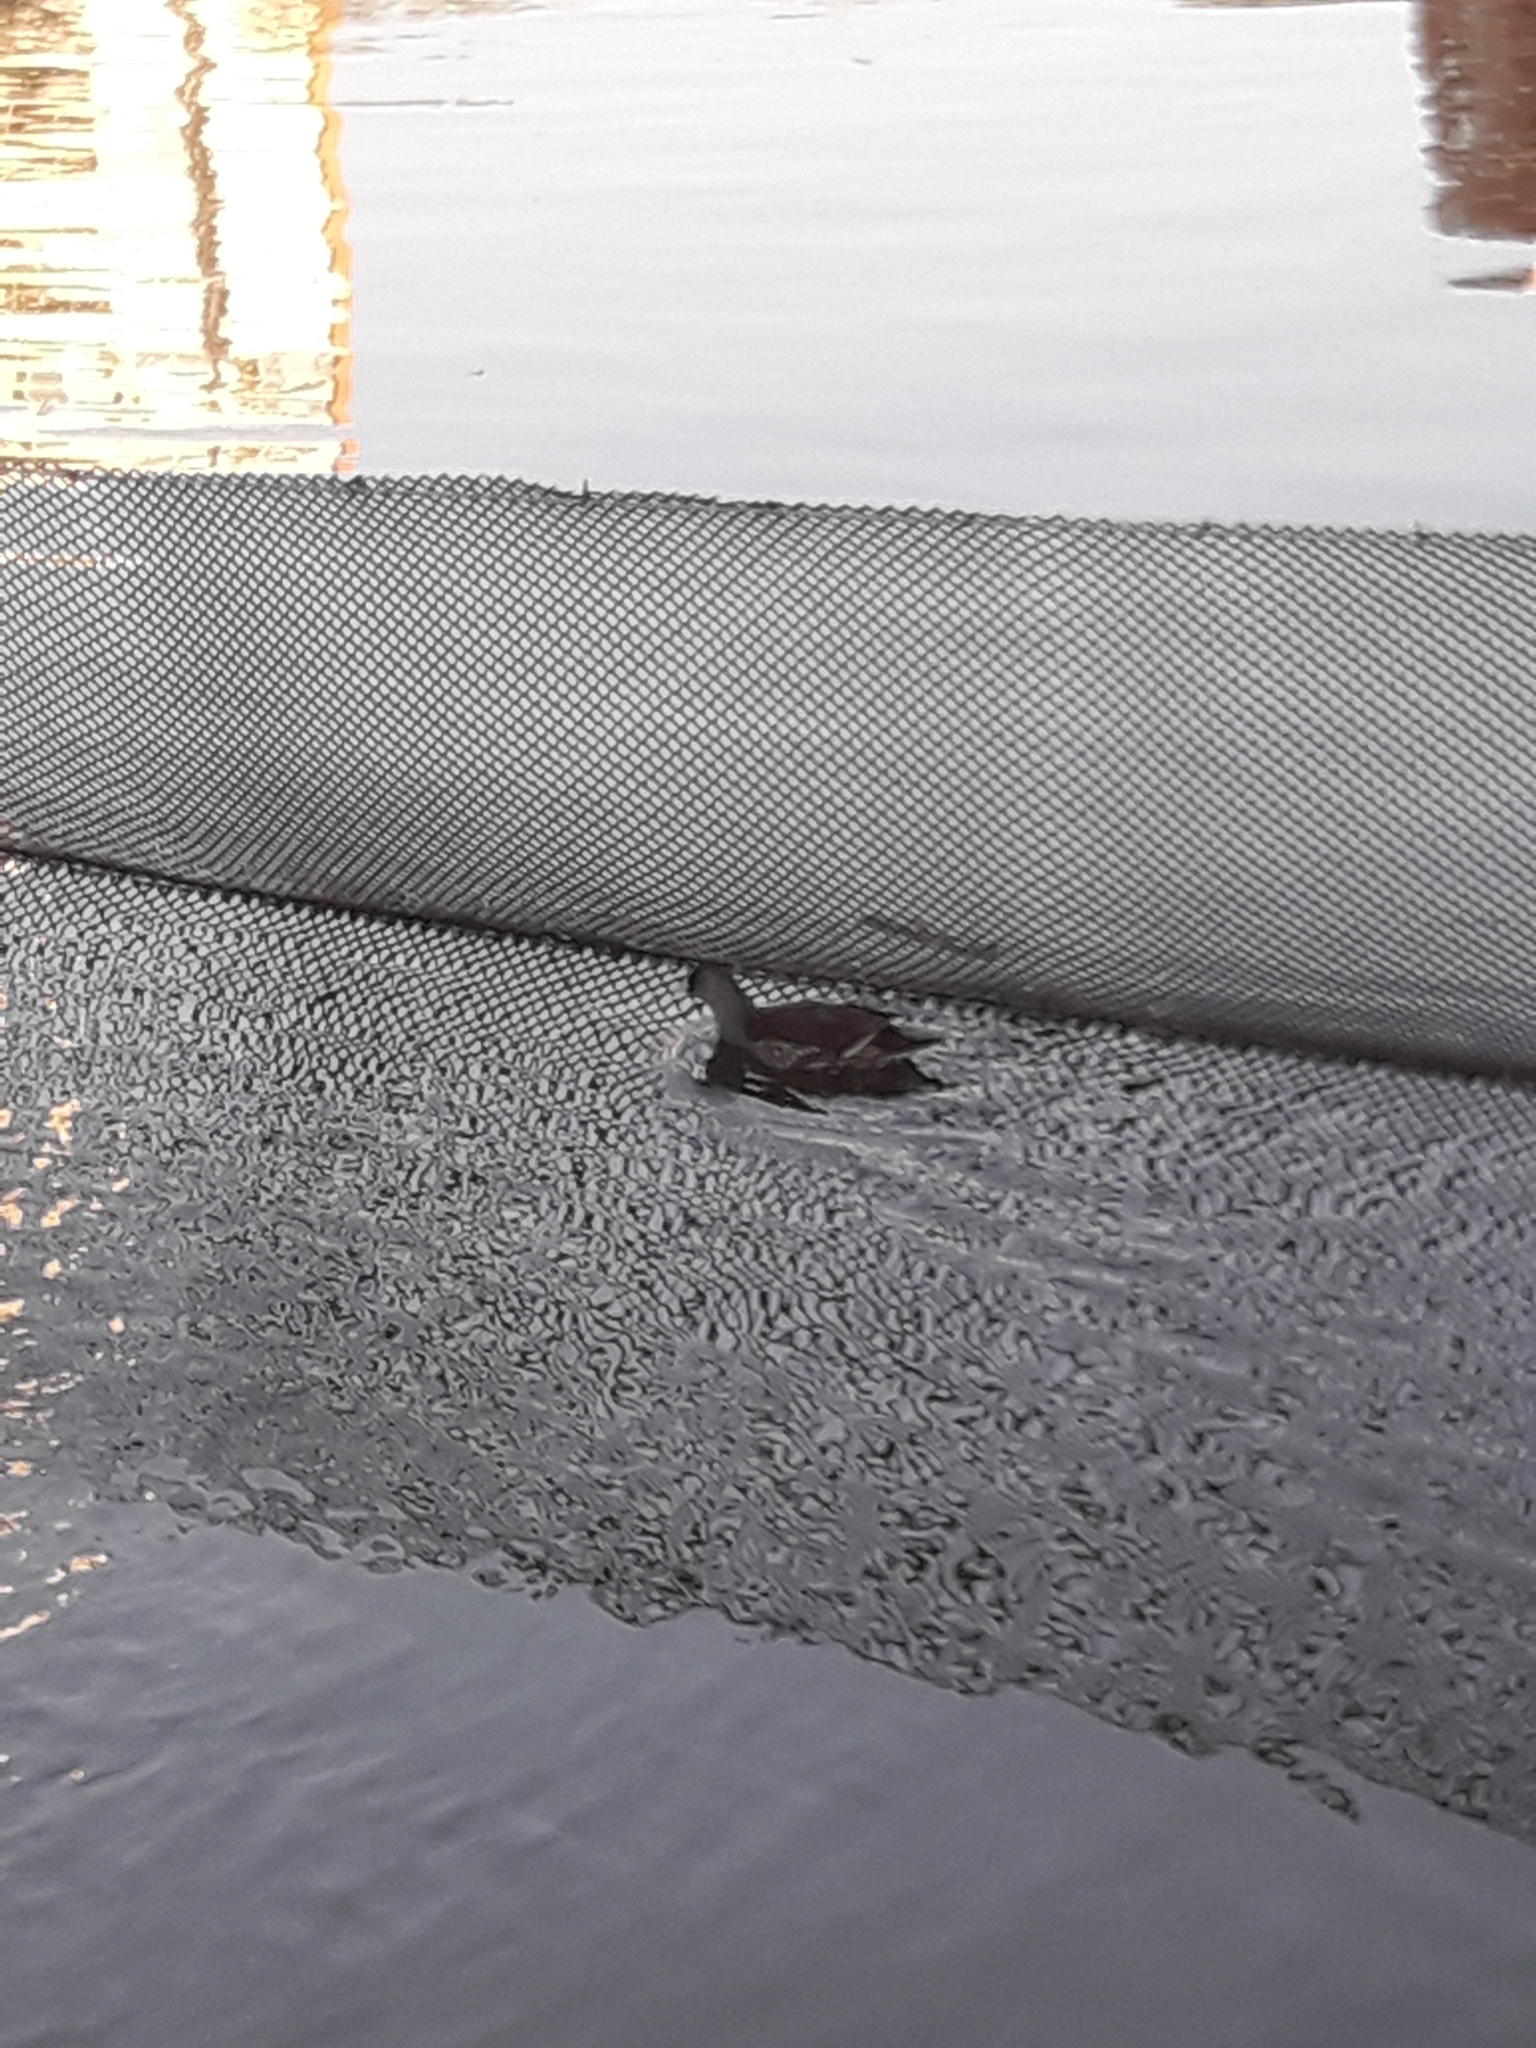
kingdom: Animalia
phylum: Chordata
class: Aves
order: Gruiformes
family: Rallidae
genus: Gallinula
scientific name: Gallinula melanops
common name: Spot-flanked gallinule
